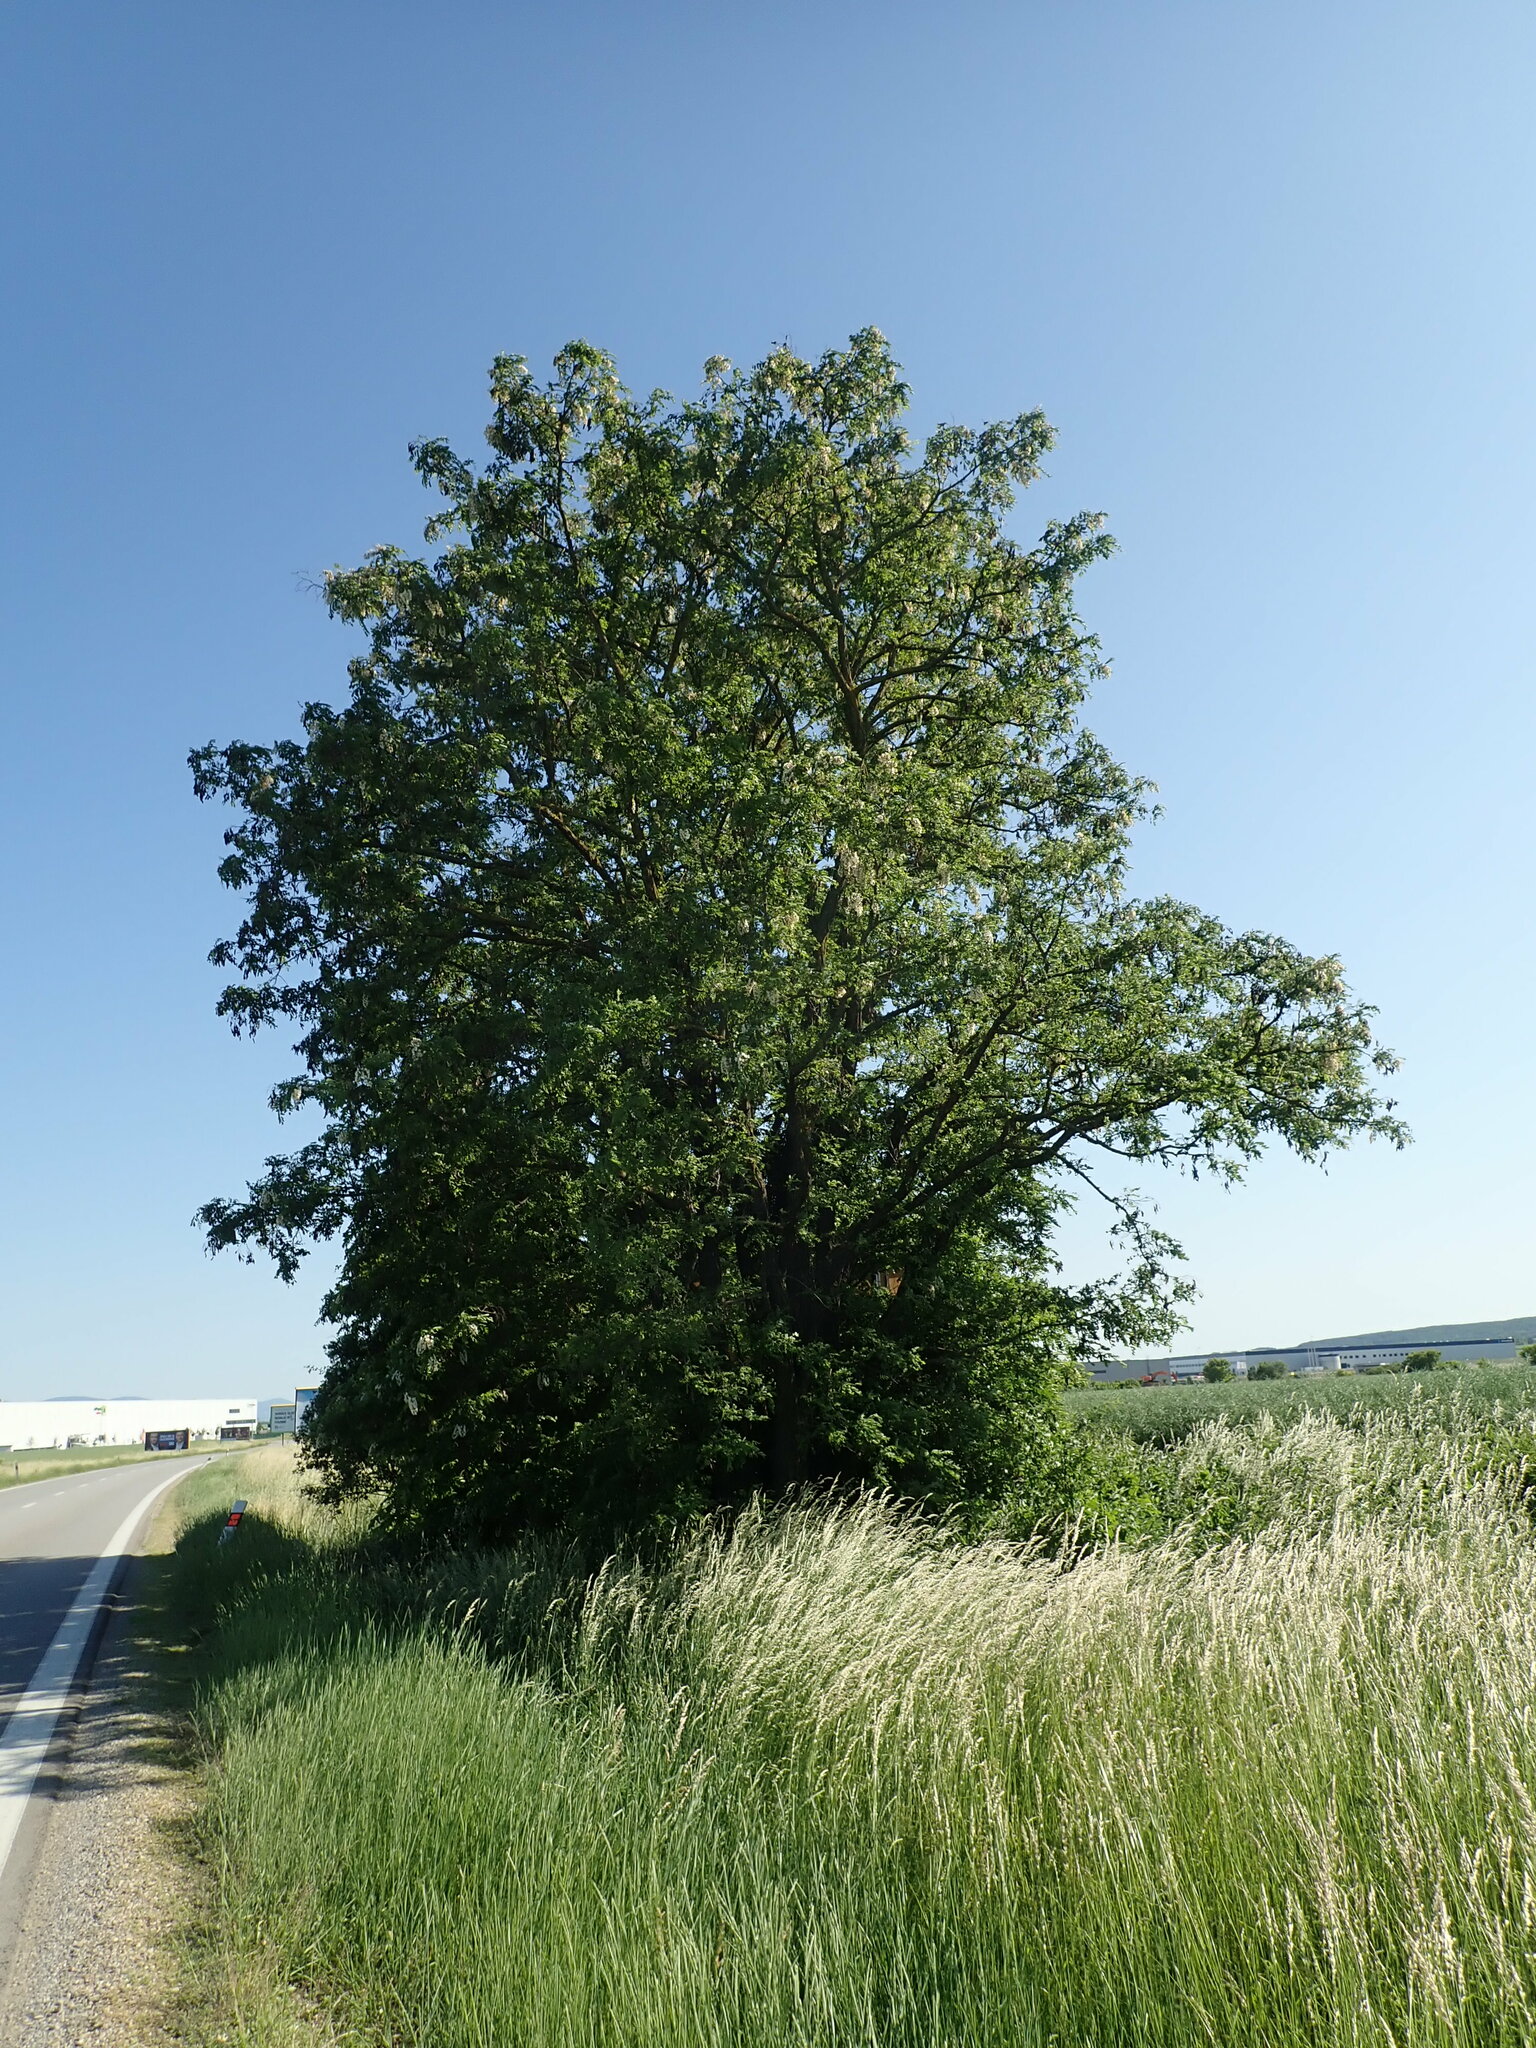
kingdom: Plantae
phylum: Tracheophyta
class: Magnoliopsida
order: Fabales
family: Fabaceae
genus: Robinia
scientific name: Robinia pseudoacacia
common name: Black locust
